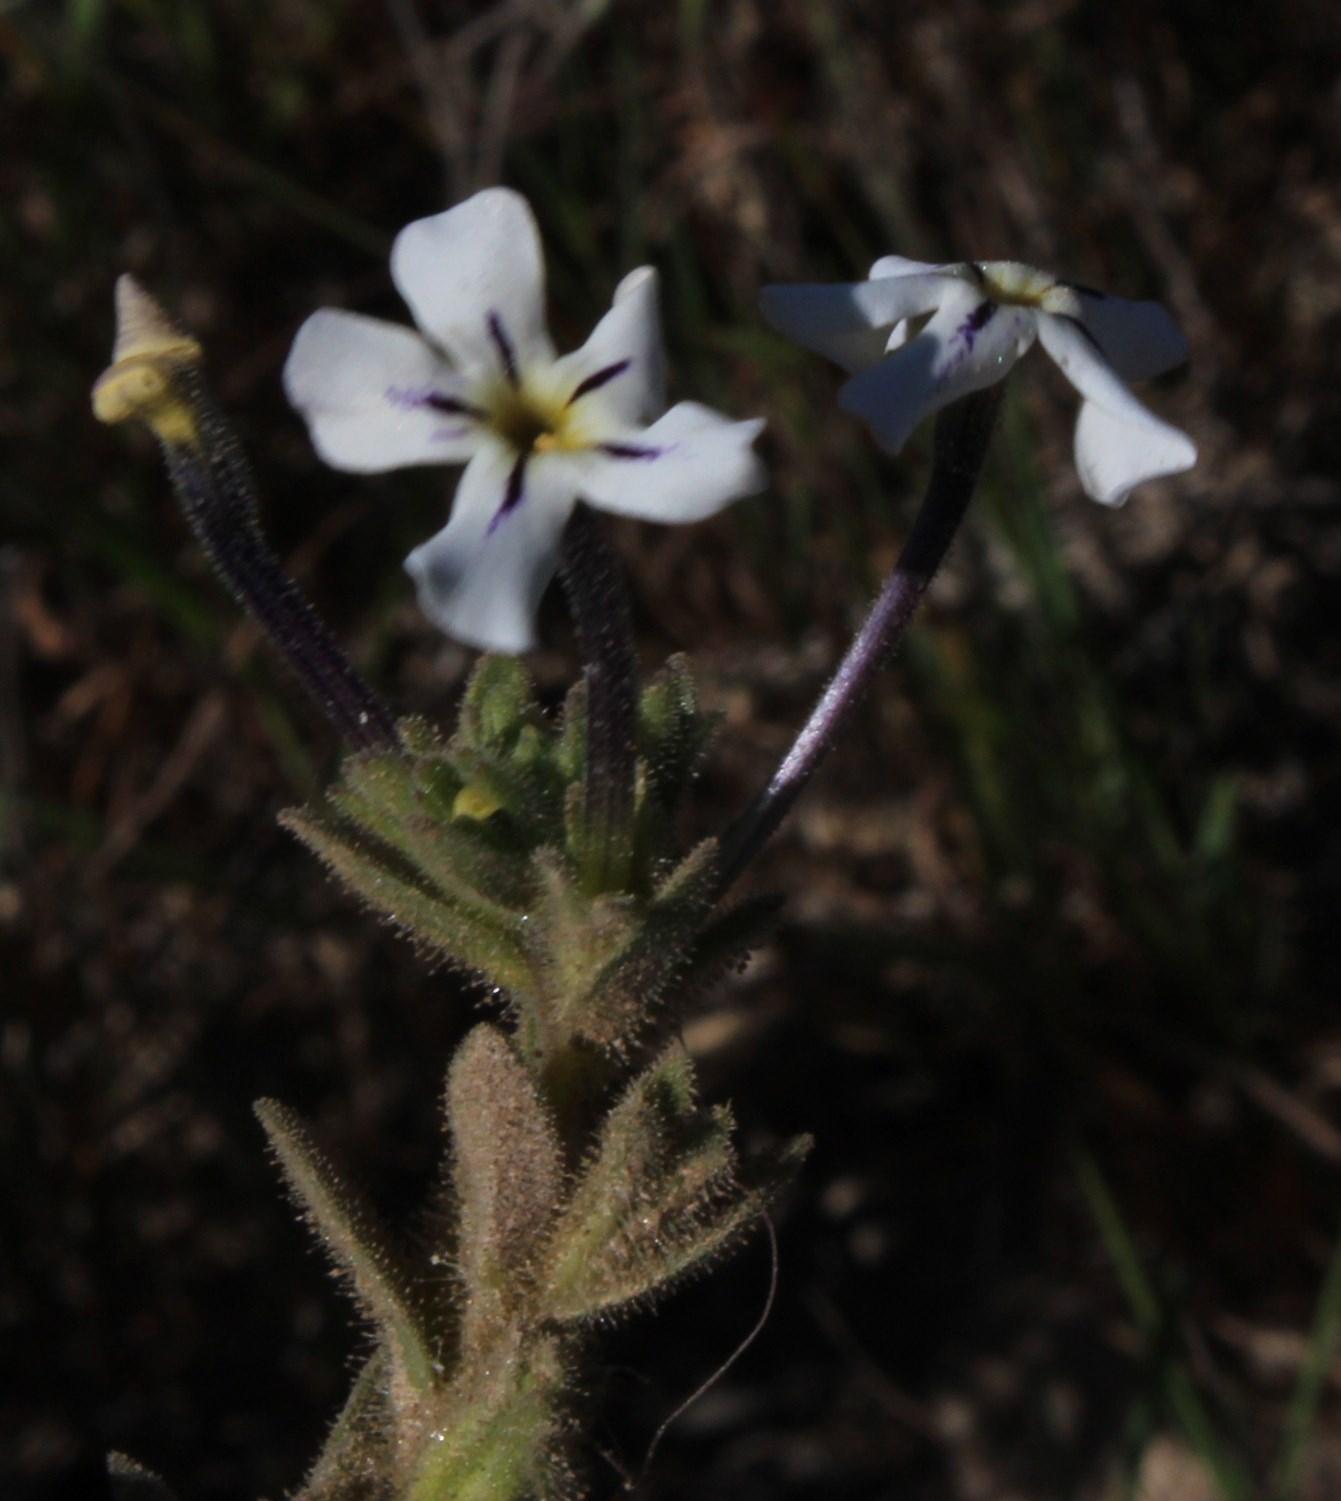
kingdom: Plantae
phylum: Tracheophyta
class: Magnoliopsida
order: Lamiales
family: Scrophulariaceae
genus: Jamesbrittenia
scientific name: Jamesbrittenia maxii
